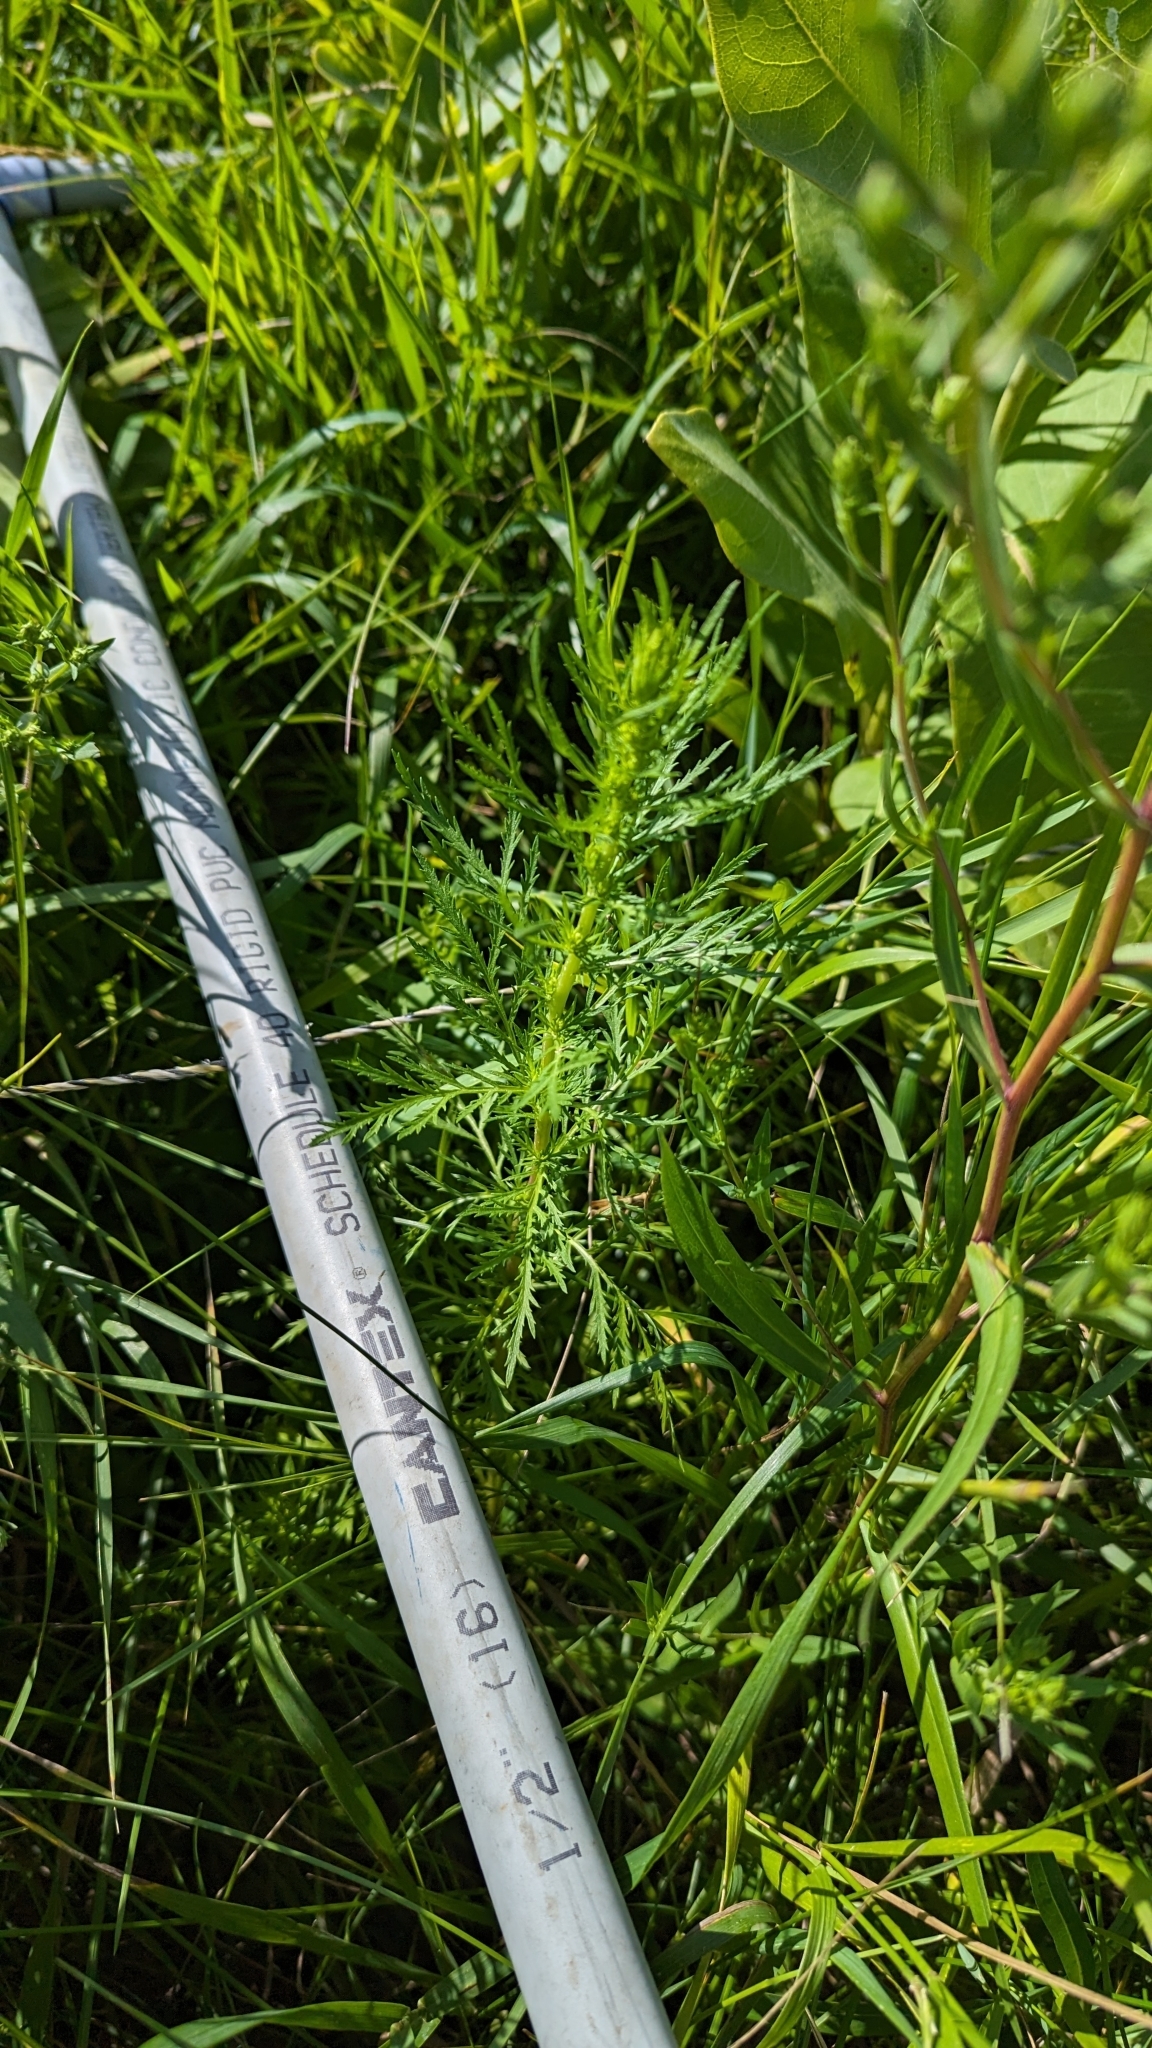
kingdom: Plantae
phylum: Tracheophyta
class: Magnoliopsida
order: Asterales
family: Asteraceae
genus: Artemisia
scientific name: Artemisia biennis
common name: Biennial wormwood
